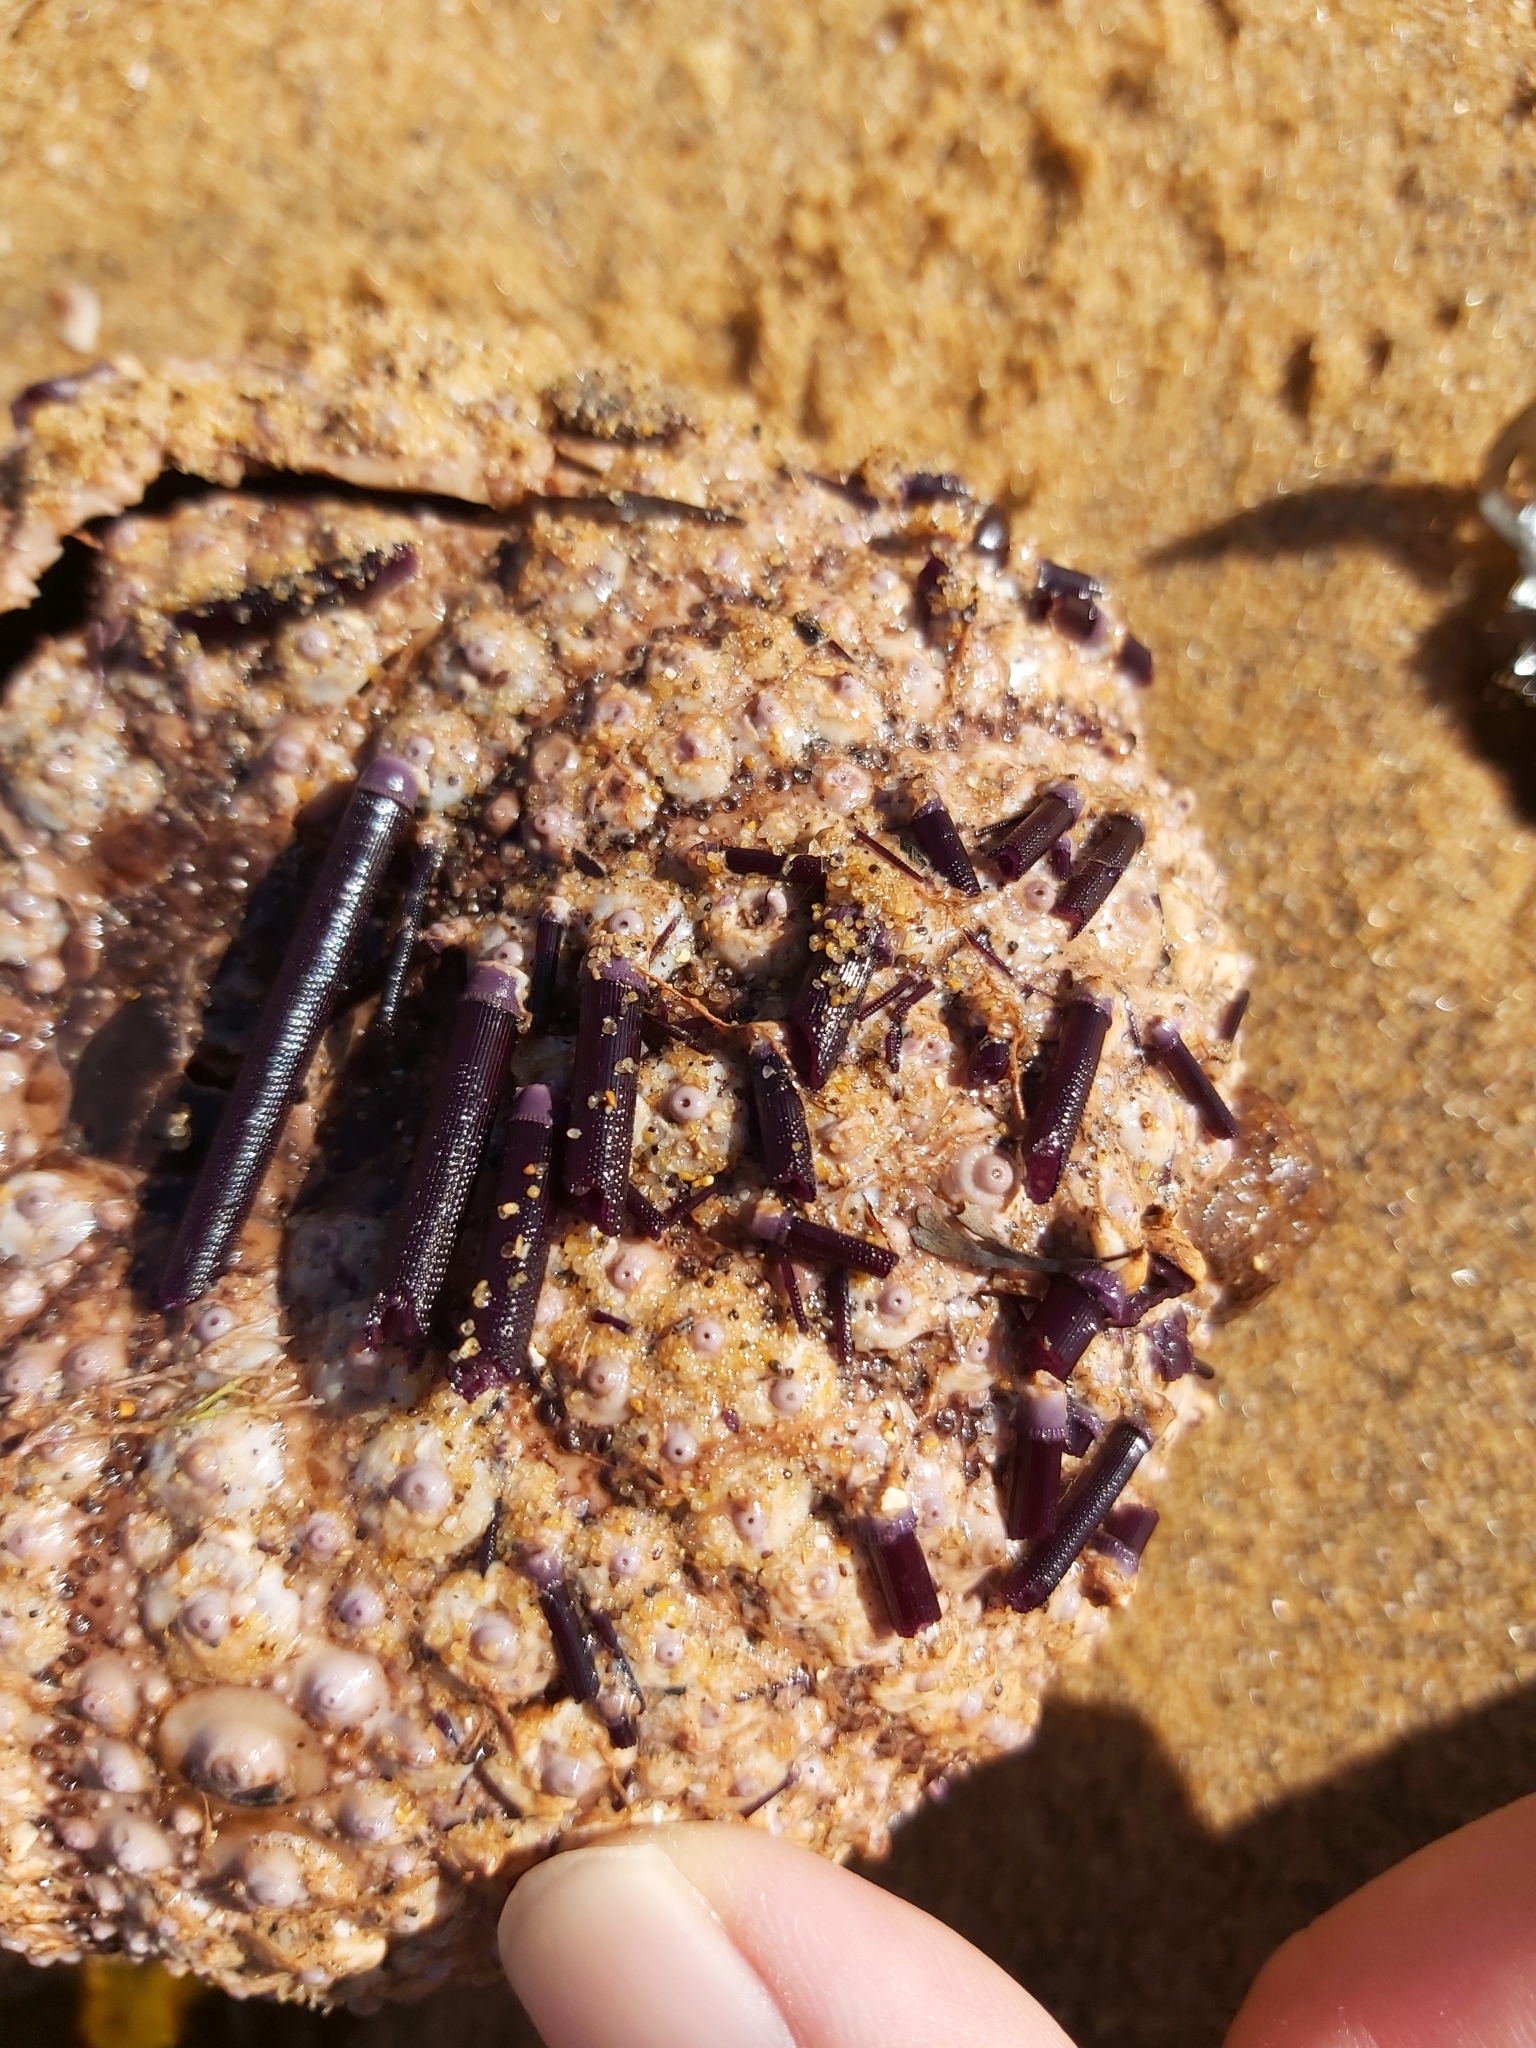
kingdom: Animalia
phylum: Echinodermata
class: Echinoidea
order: Camarodonta
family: Echinometridae
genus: Heliocidaris
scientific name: Heliocidaris erythrogramma
